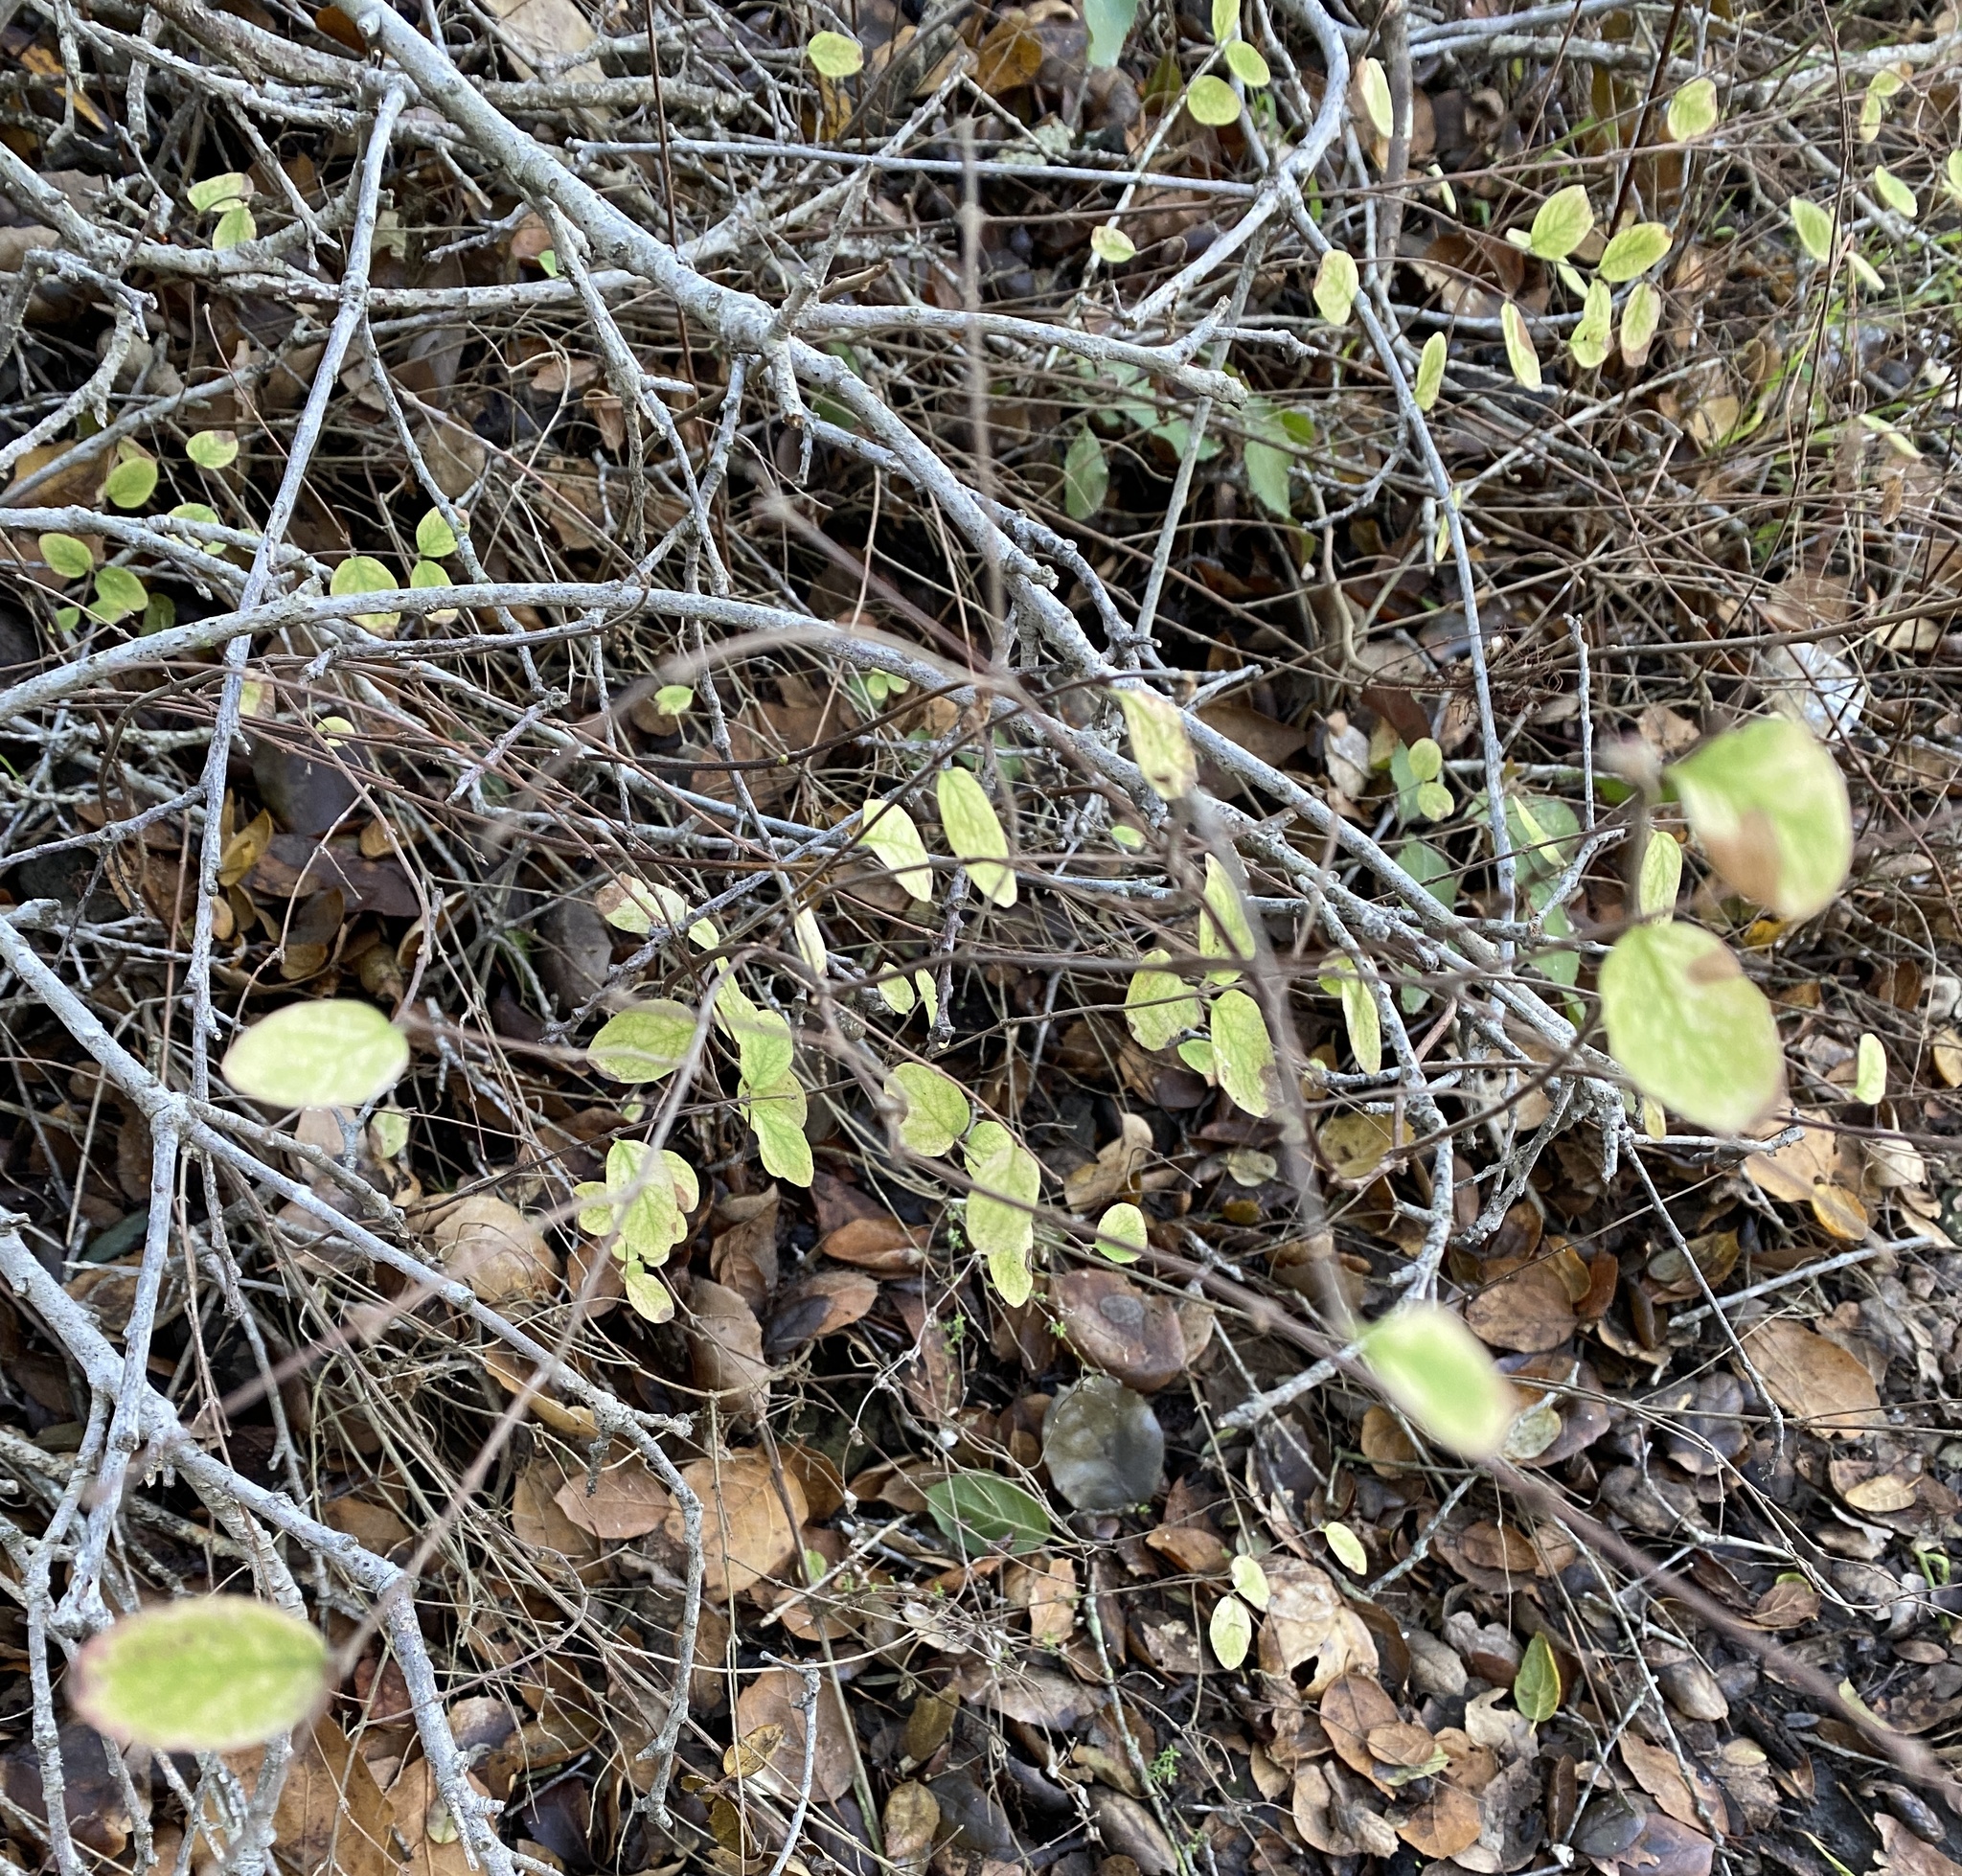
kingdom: Plantae
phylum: Tracheophyta
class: Magnoliopsida
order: Dipsacales
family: Caprifoliaceae
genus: Symphoricarpos
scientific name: Symphoricarpos mollis
